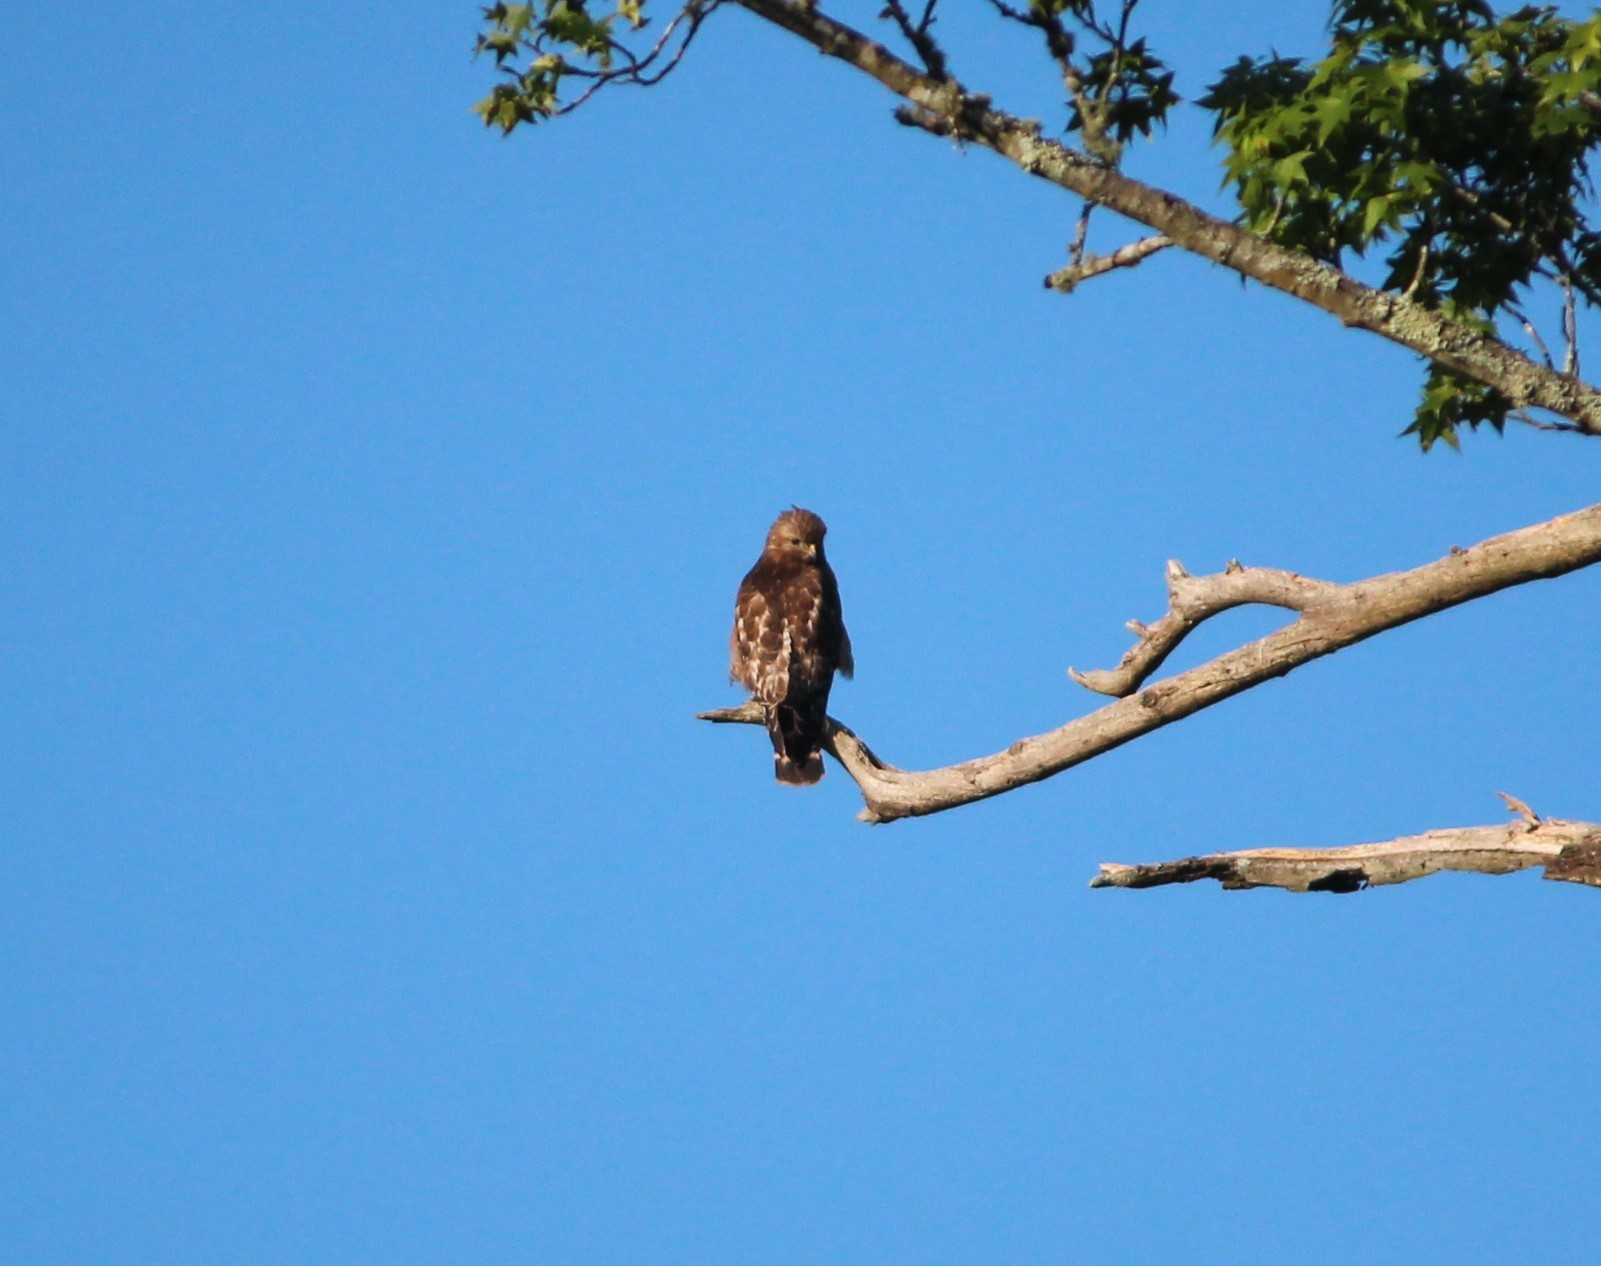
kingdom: Animalia
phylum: Chordata
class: Aves
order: Accipitriformes
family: Accipitridae
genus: Buteo
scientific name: Buteo lineatus
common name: Red-shouldered hawk
